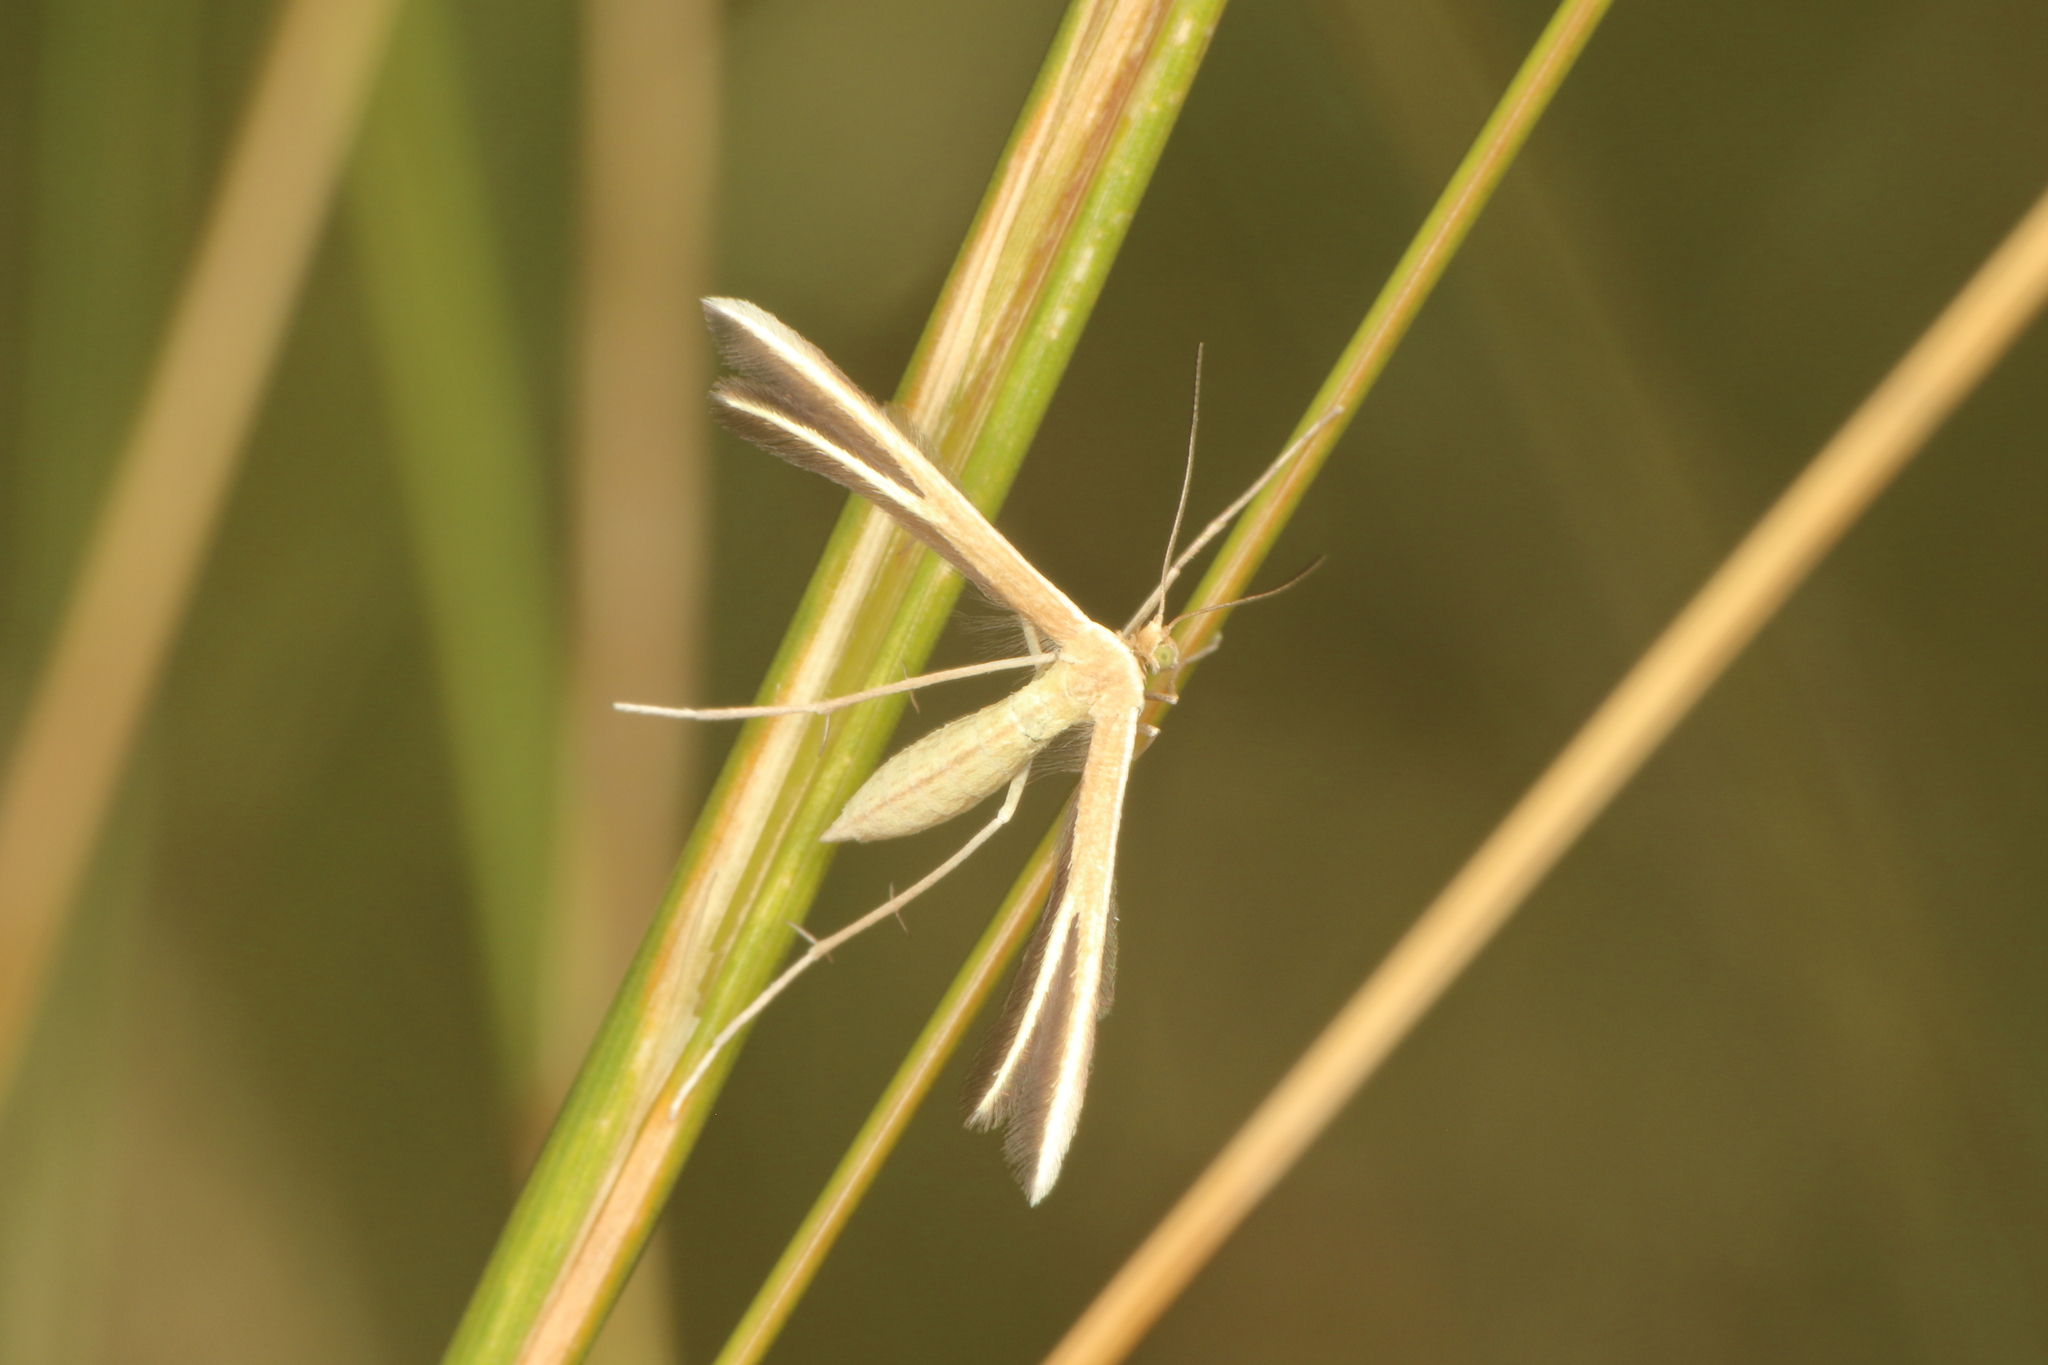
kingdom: Animalia
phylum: Arthropoda
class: Insecta
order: Lepidoptera
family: Pterophoridae
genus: Pterophorus
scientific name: Pterophorus innotatalis
